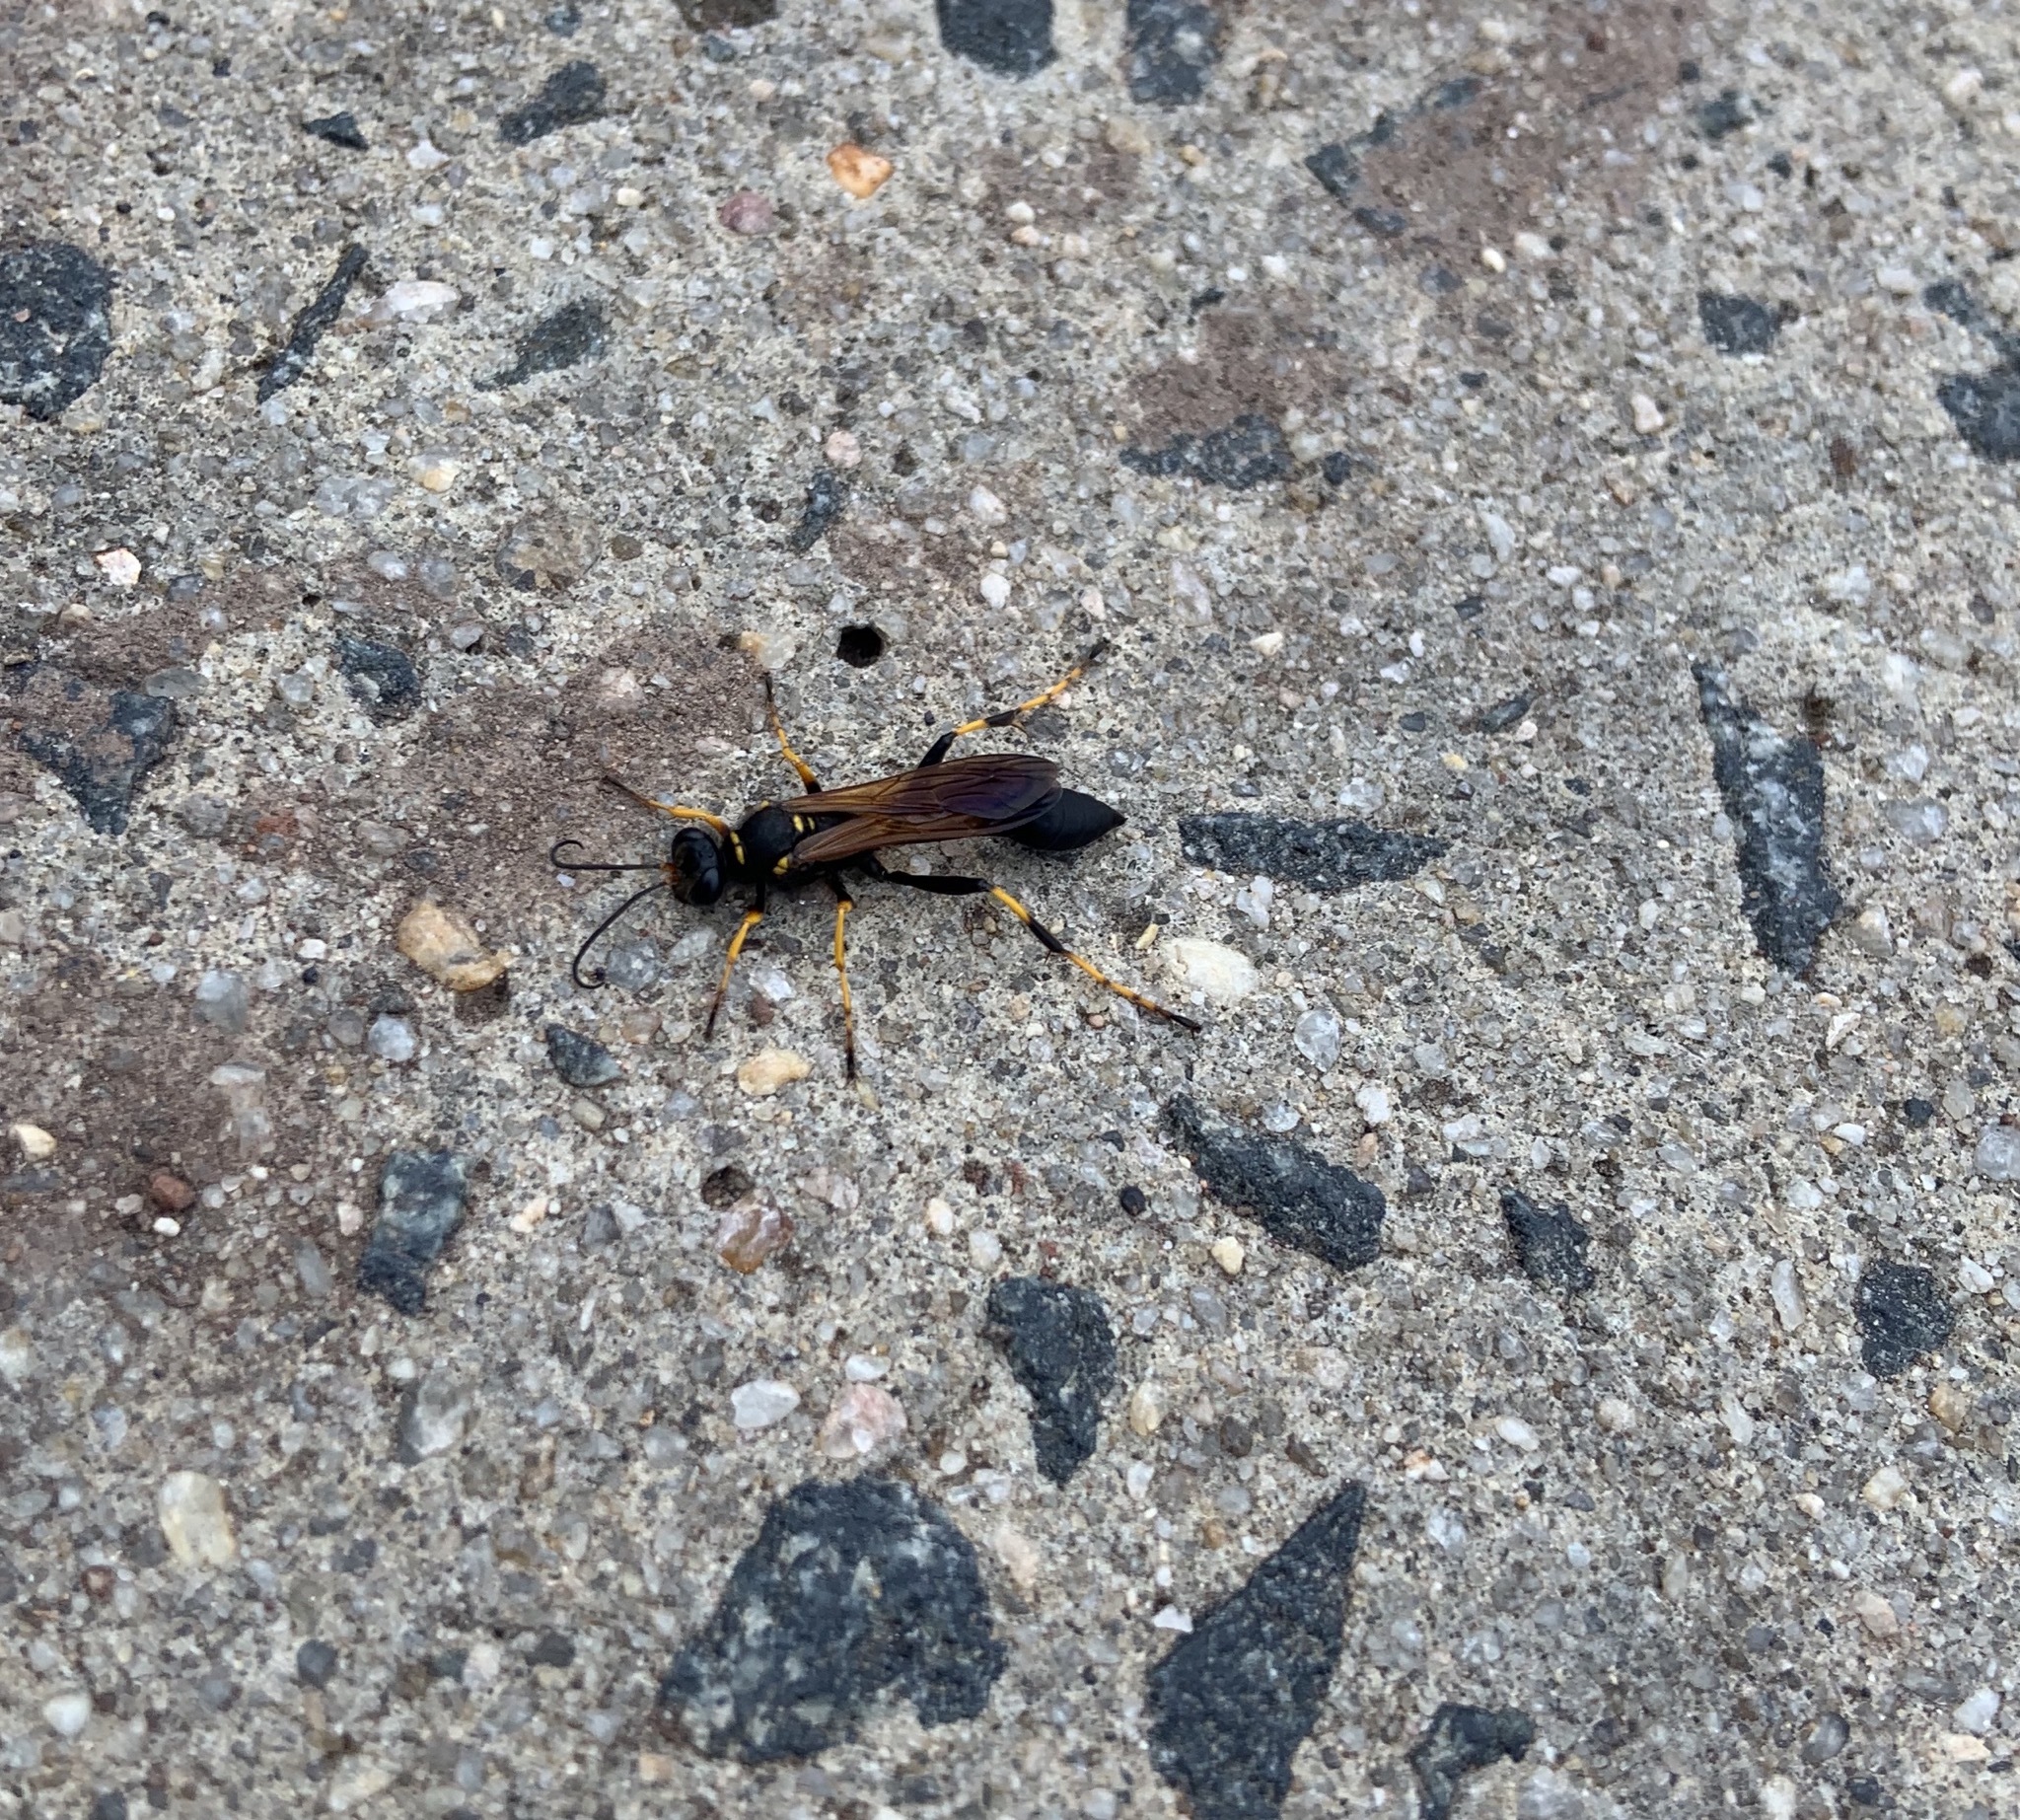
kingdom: Animalia
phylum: Arthropoda
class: Insecta
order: Hymenoptera
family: Sphecidae
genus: Sceliphron
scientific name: Sceliphron caementarium
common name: Mud dauber
